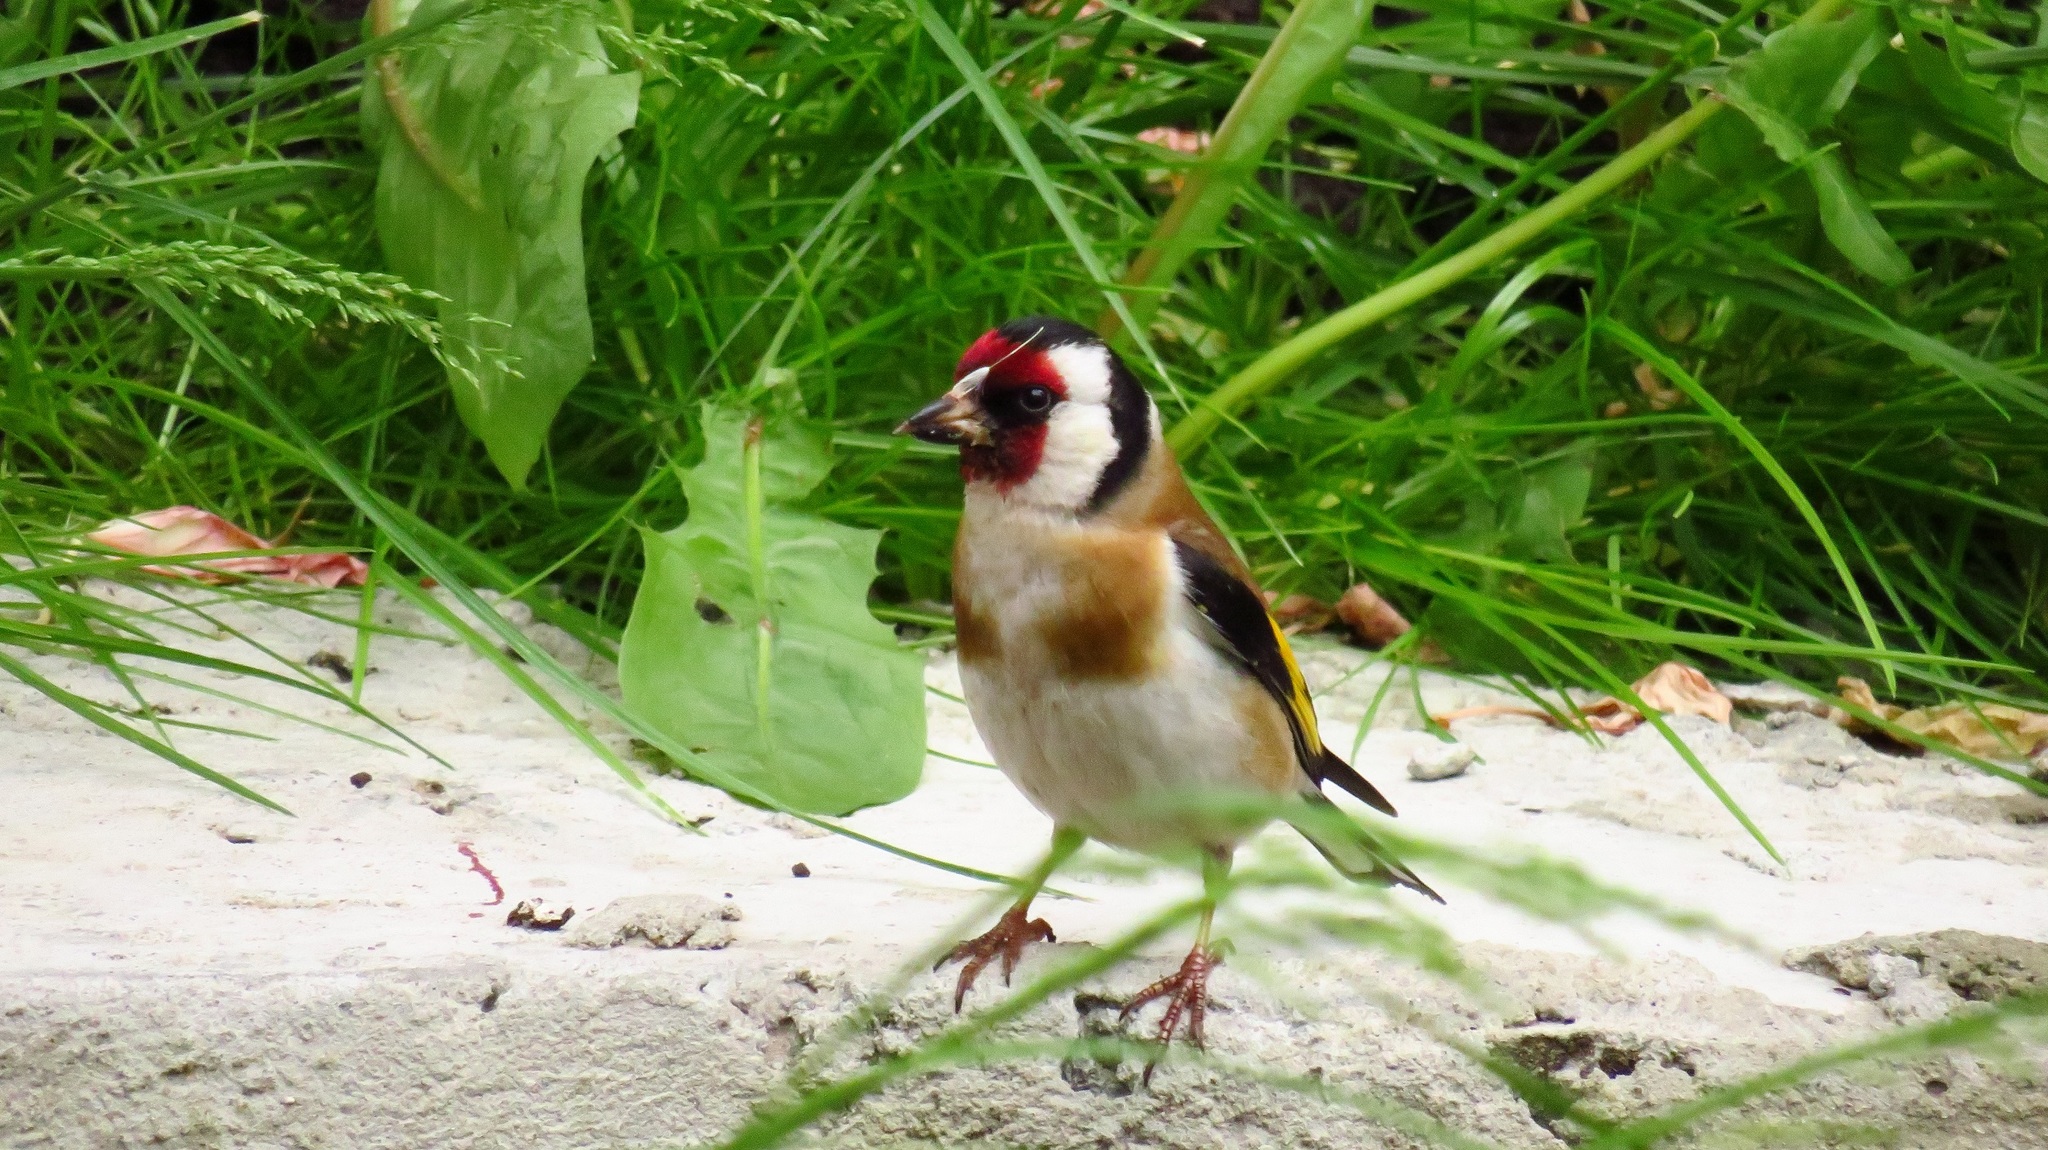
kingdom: Animalia
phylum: Chordata
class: Aves
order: Passeriformes
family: Fringillidae
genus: Carduelis
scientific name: Carduelis carduelis
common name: European goldfinch
